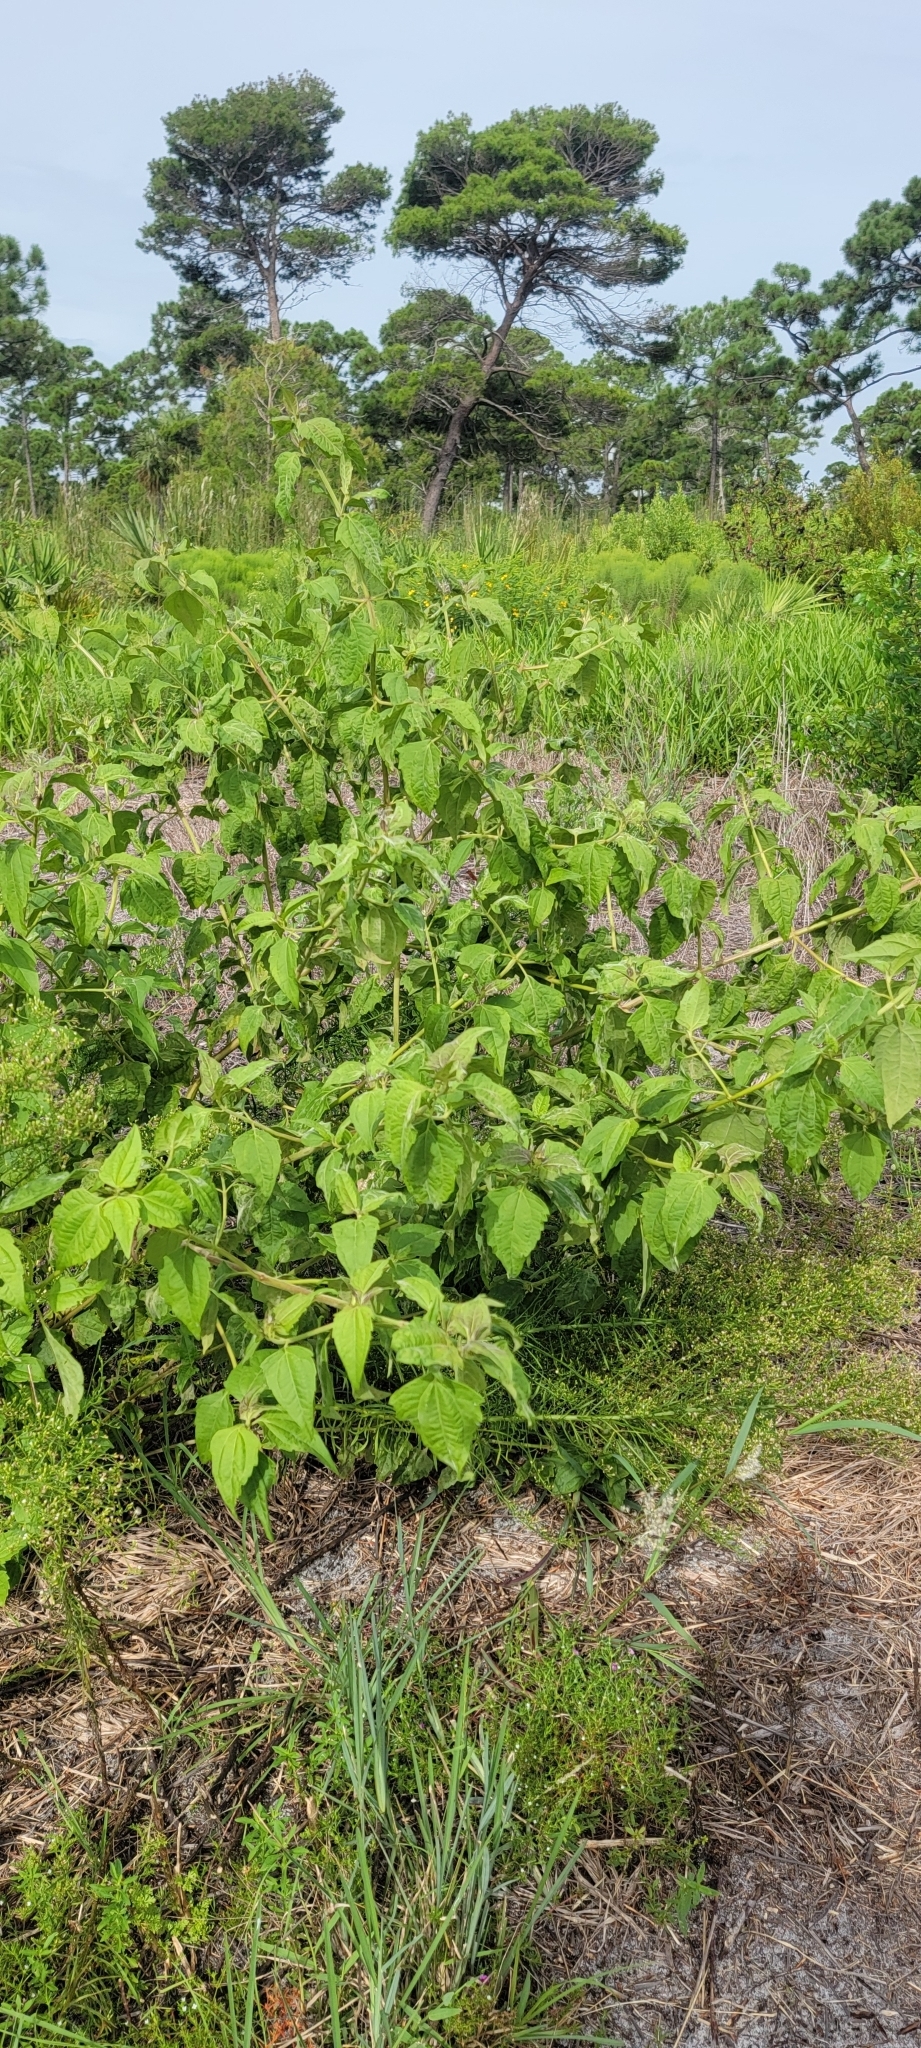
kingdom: Plantae
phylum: Tracheophyta
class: Magnoliopsida
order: Asterales
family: Asteraceae
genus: Chromolaena
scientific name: Chromolaena odorata
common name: Siamweed
